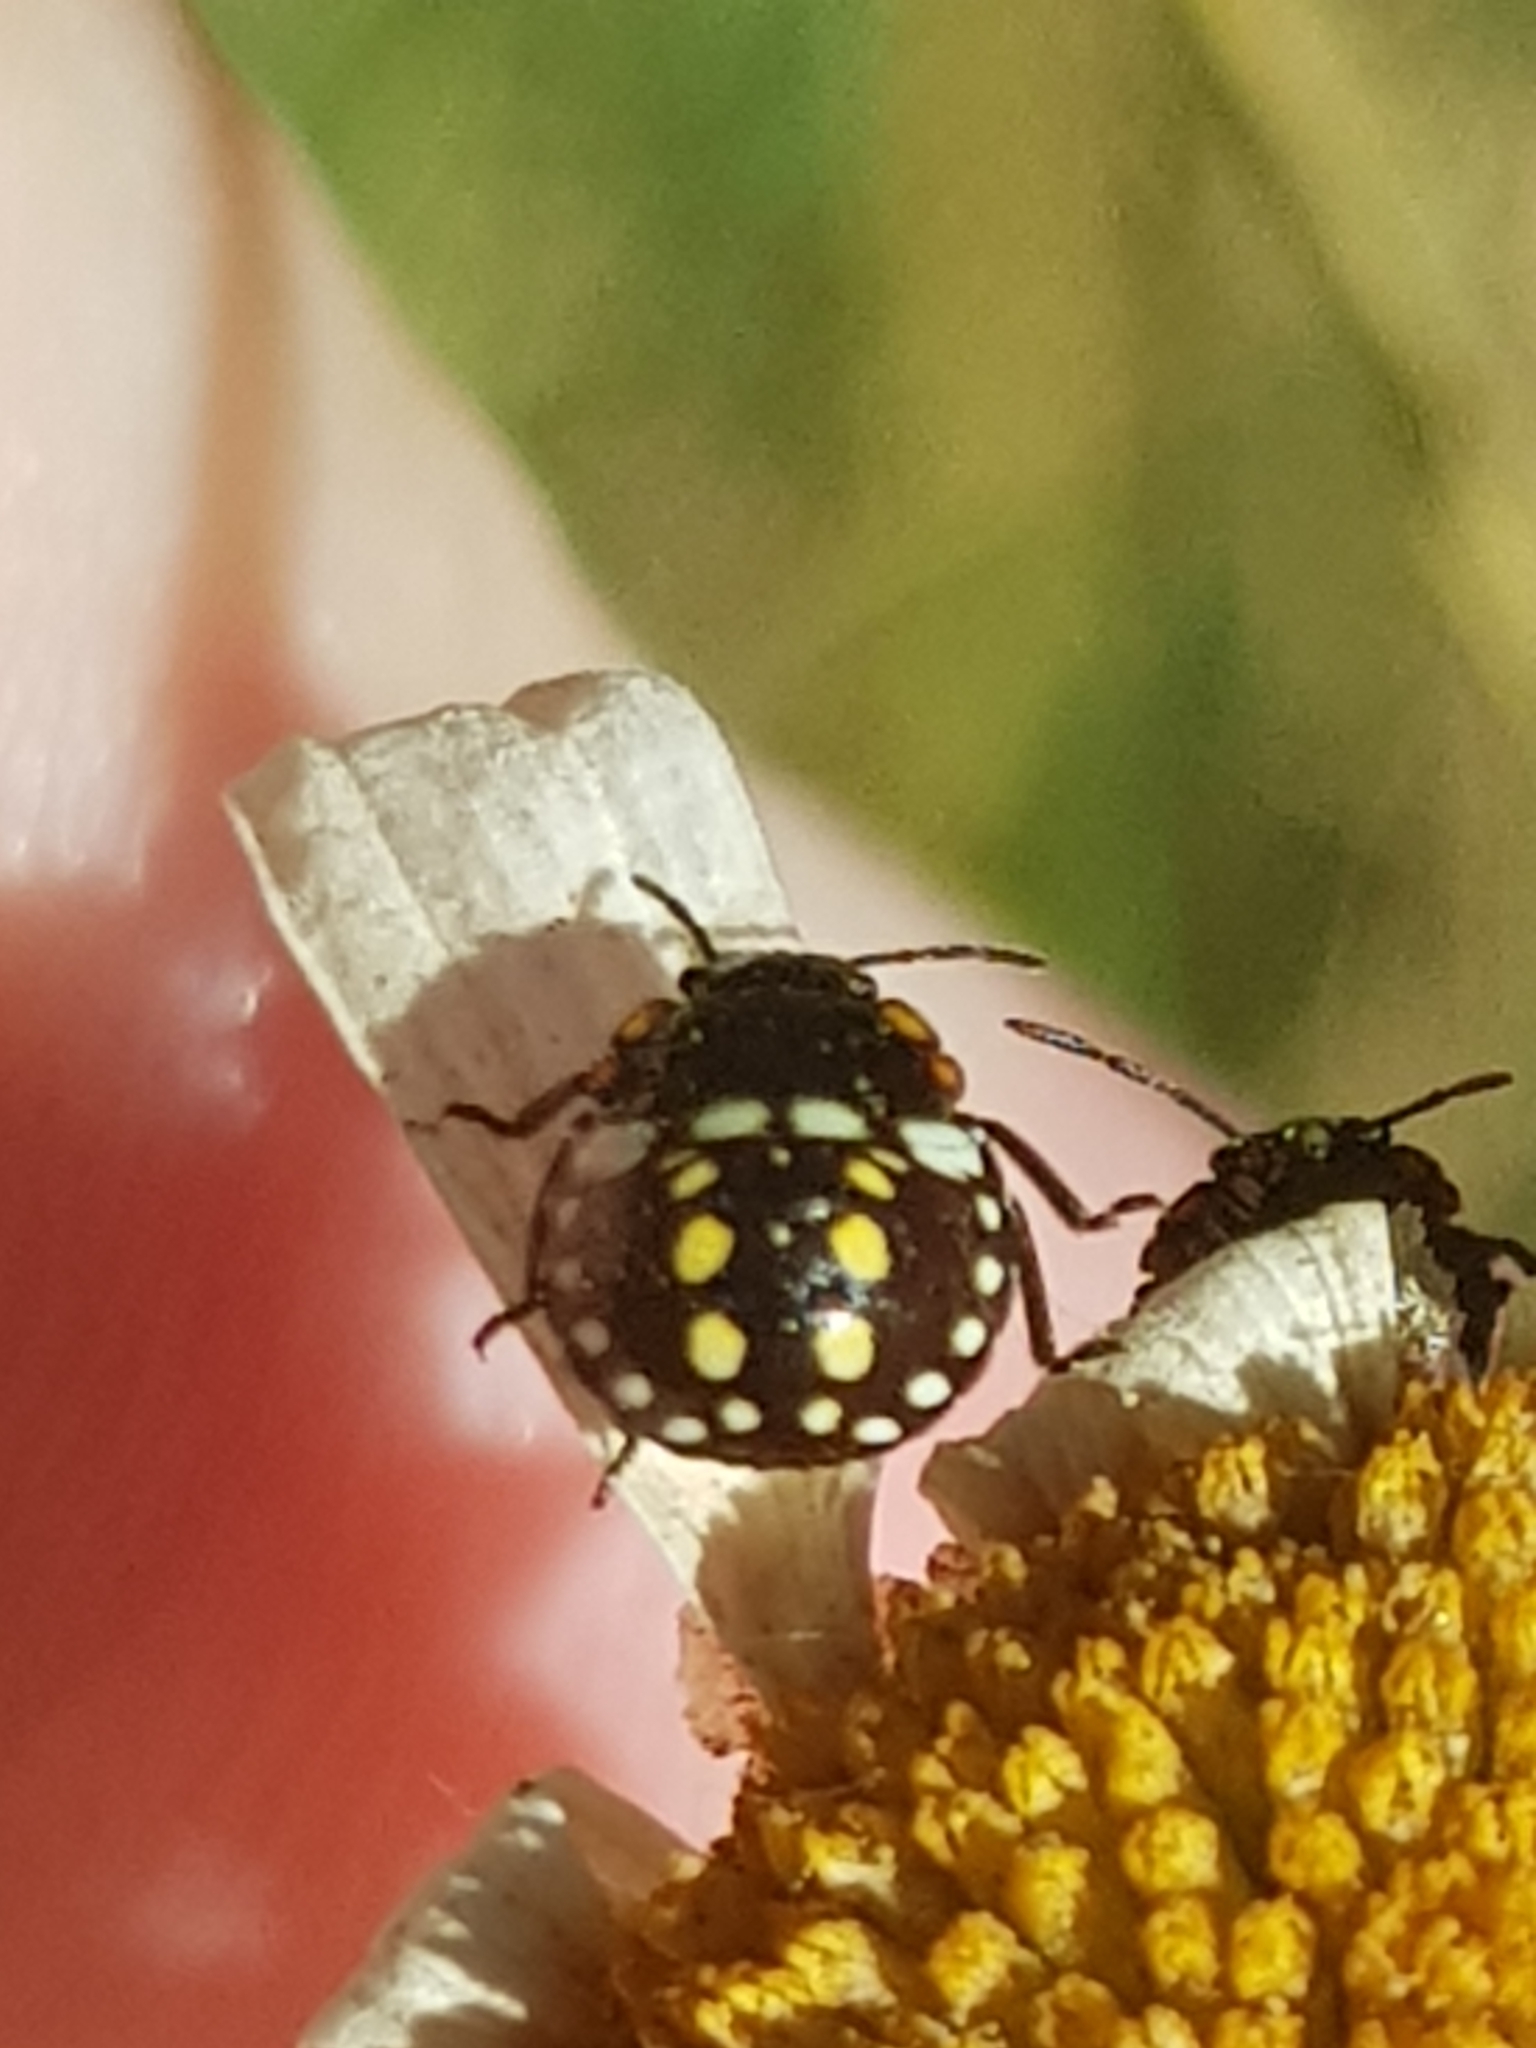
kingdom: Animalia
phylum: Arthropoda
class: Insecta
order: Hemiptera
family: Pentatomidae
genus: Nezara
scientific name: Nezara viridula
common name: Southern green stink bug
